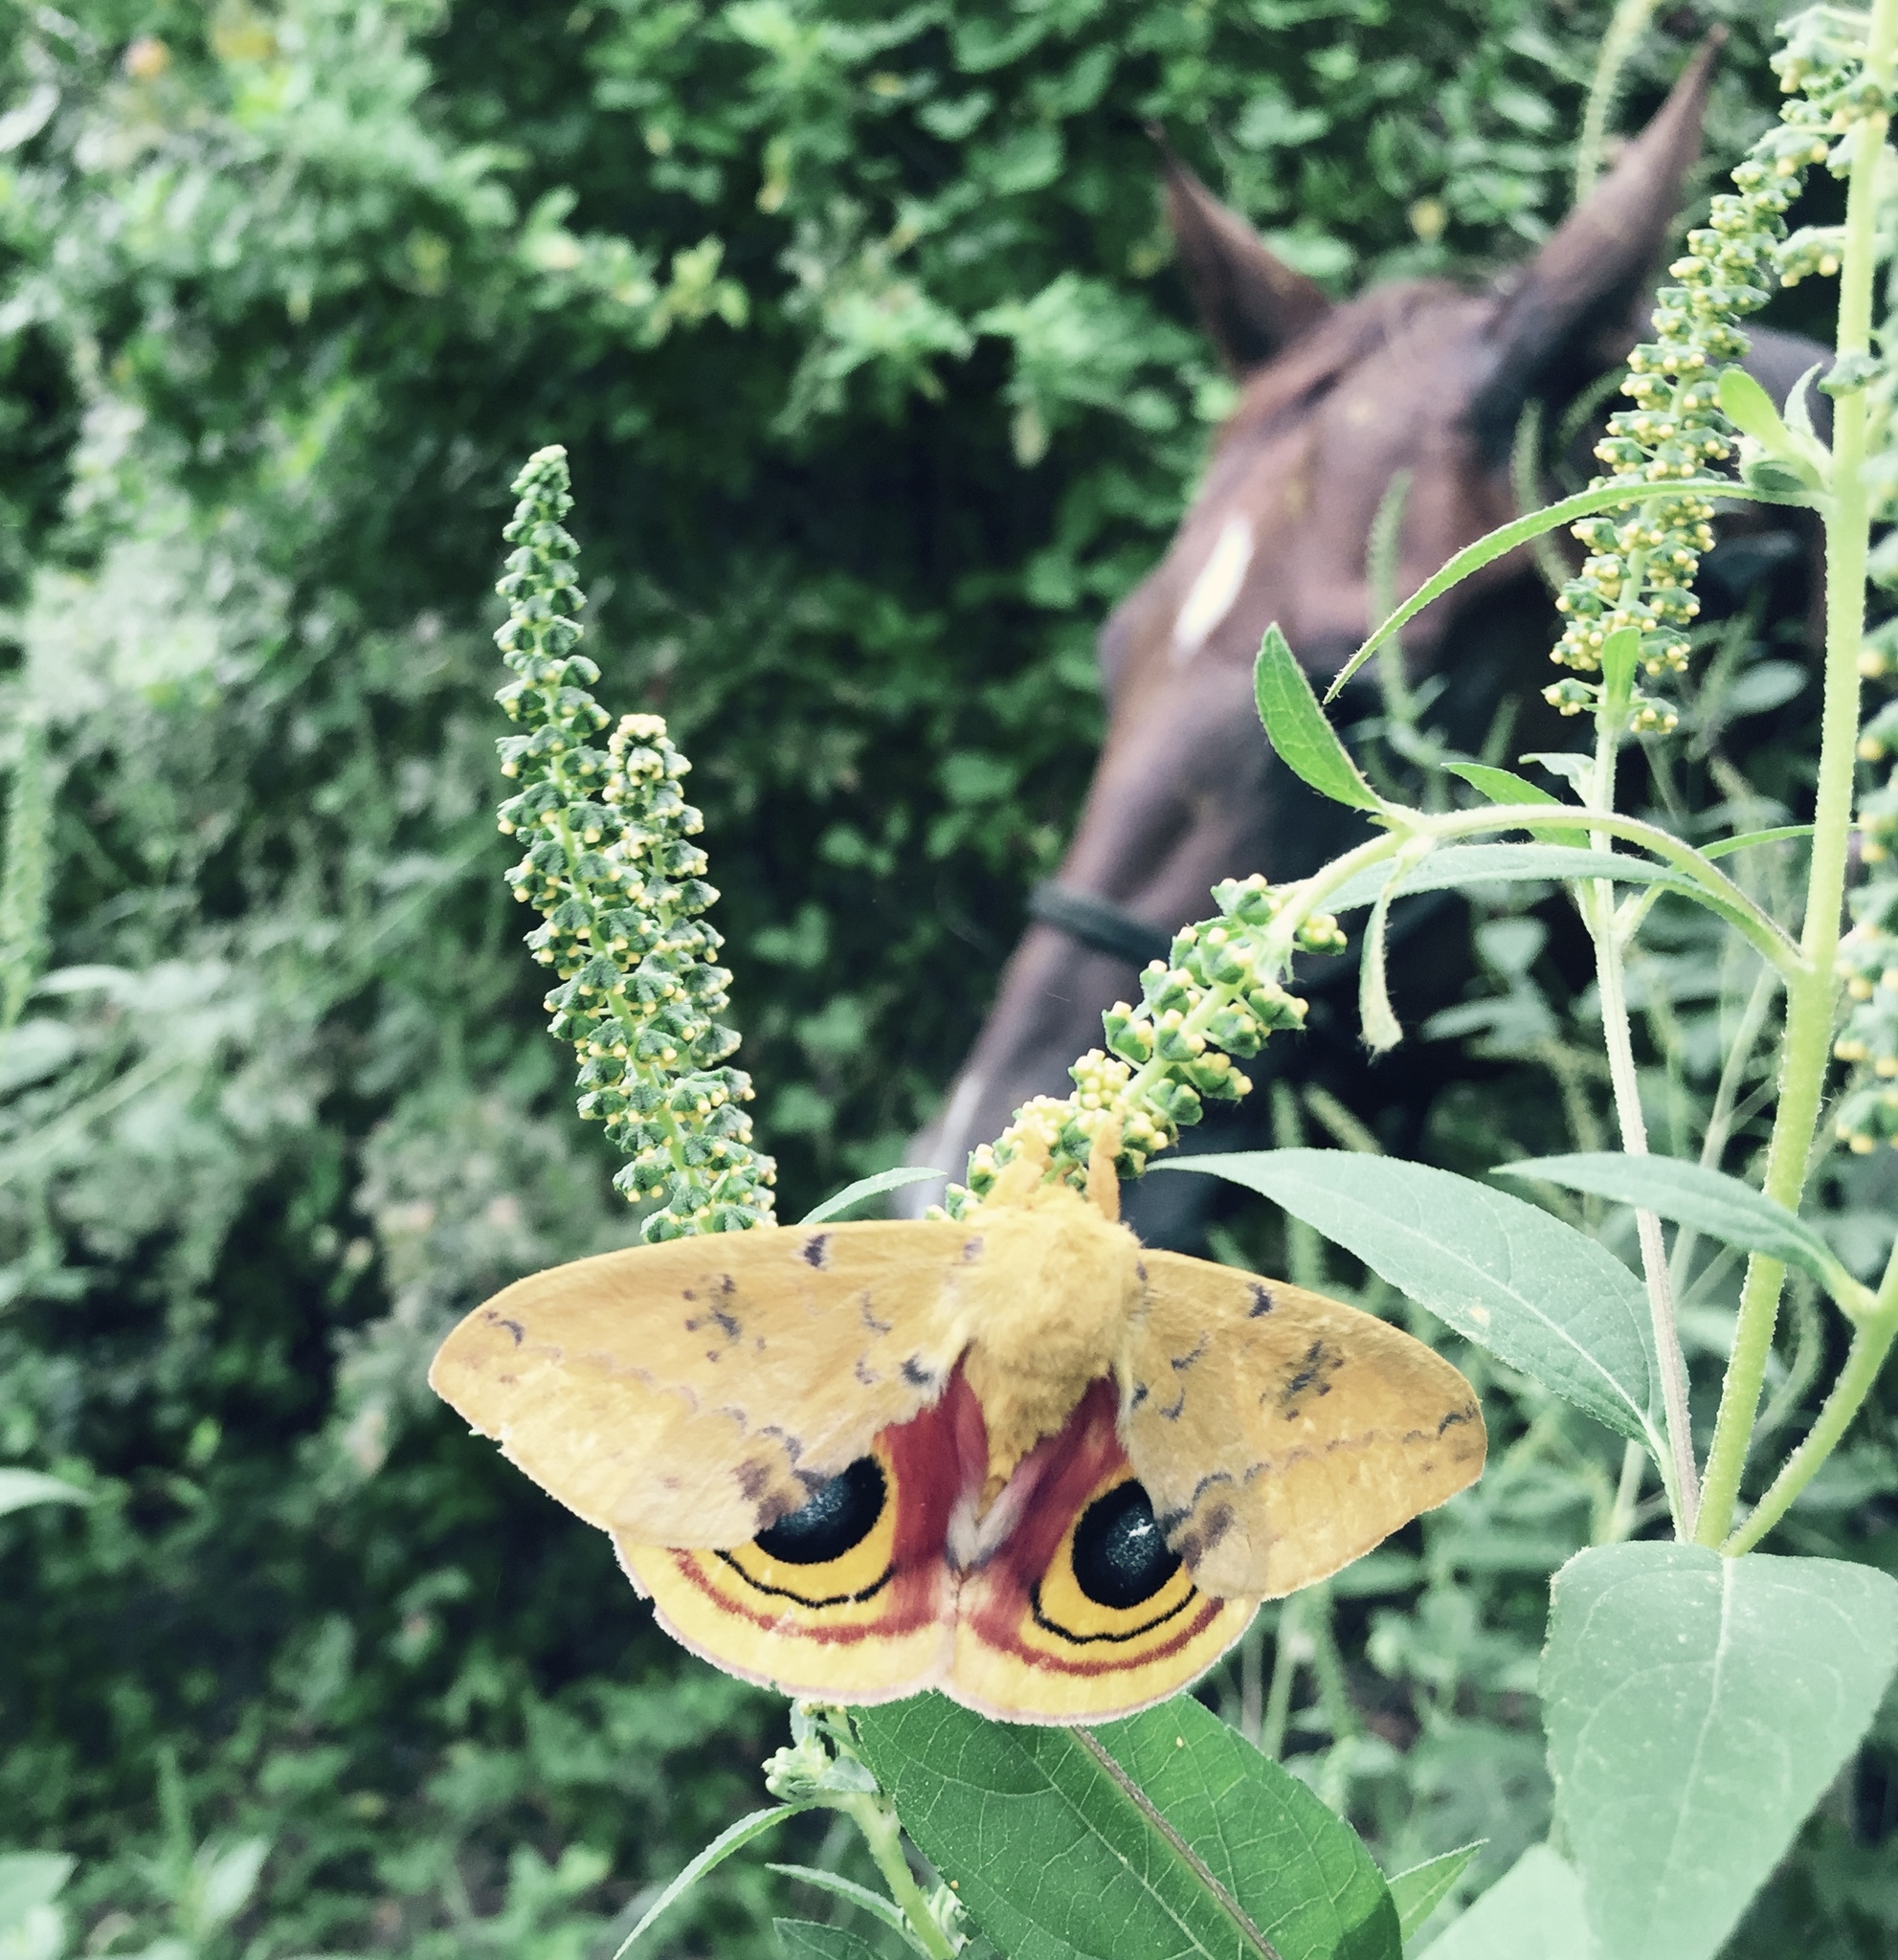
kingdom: Animalia
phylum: Arthropoda
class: Insecta
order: Lepidoptera
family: Saturniidae
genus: Automeris
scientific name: Automeris io
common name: Io moth
